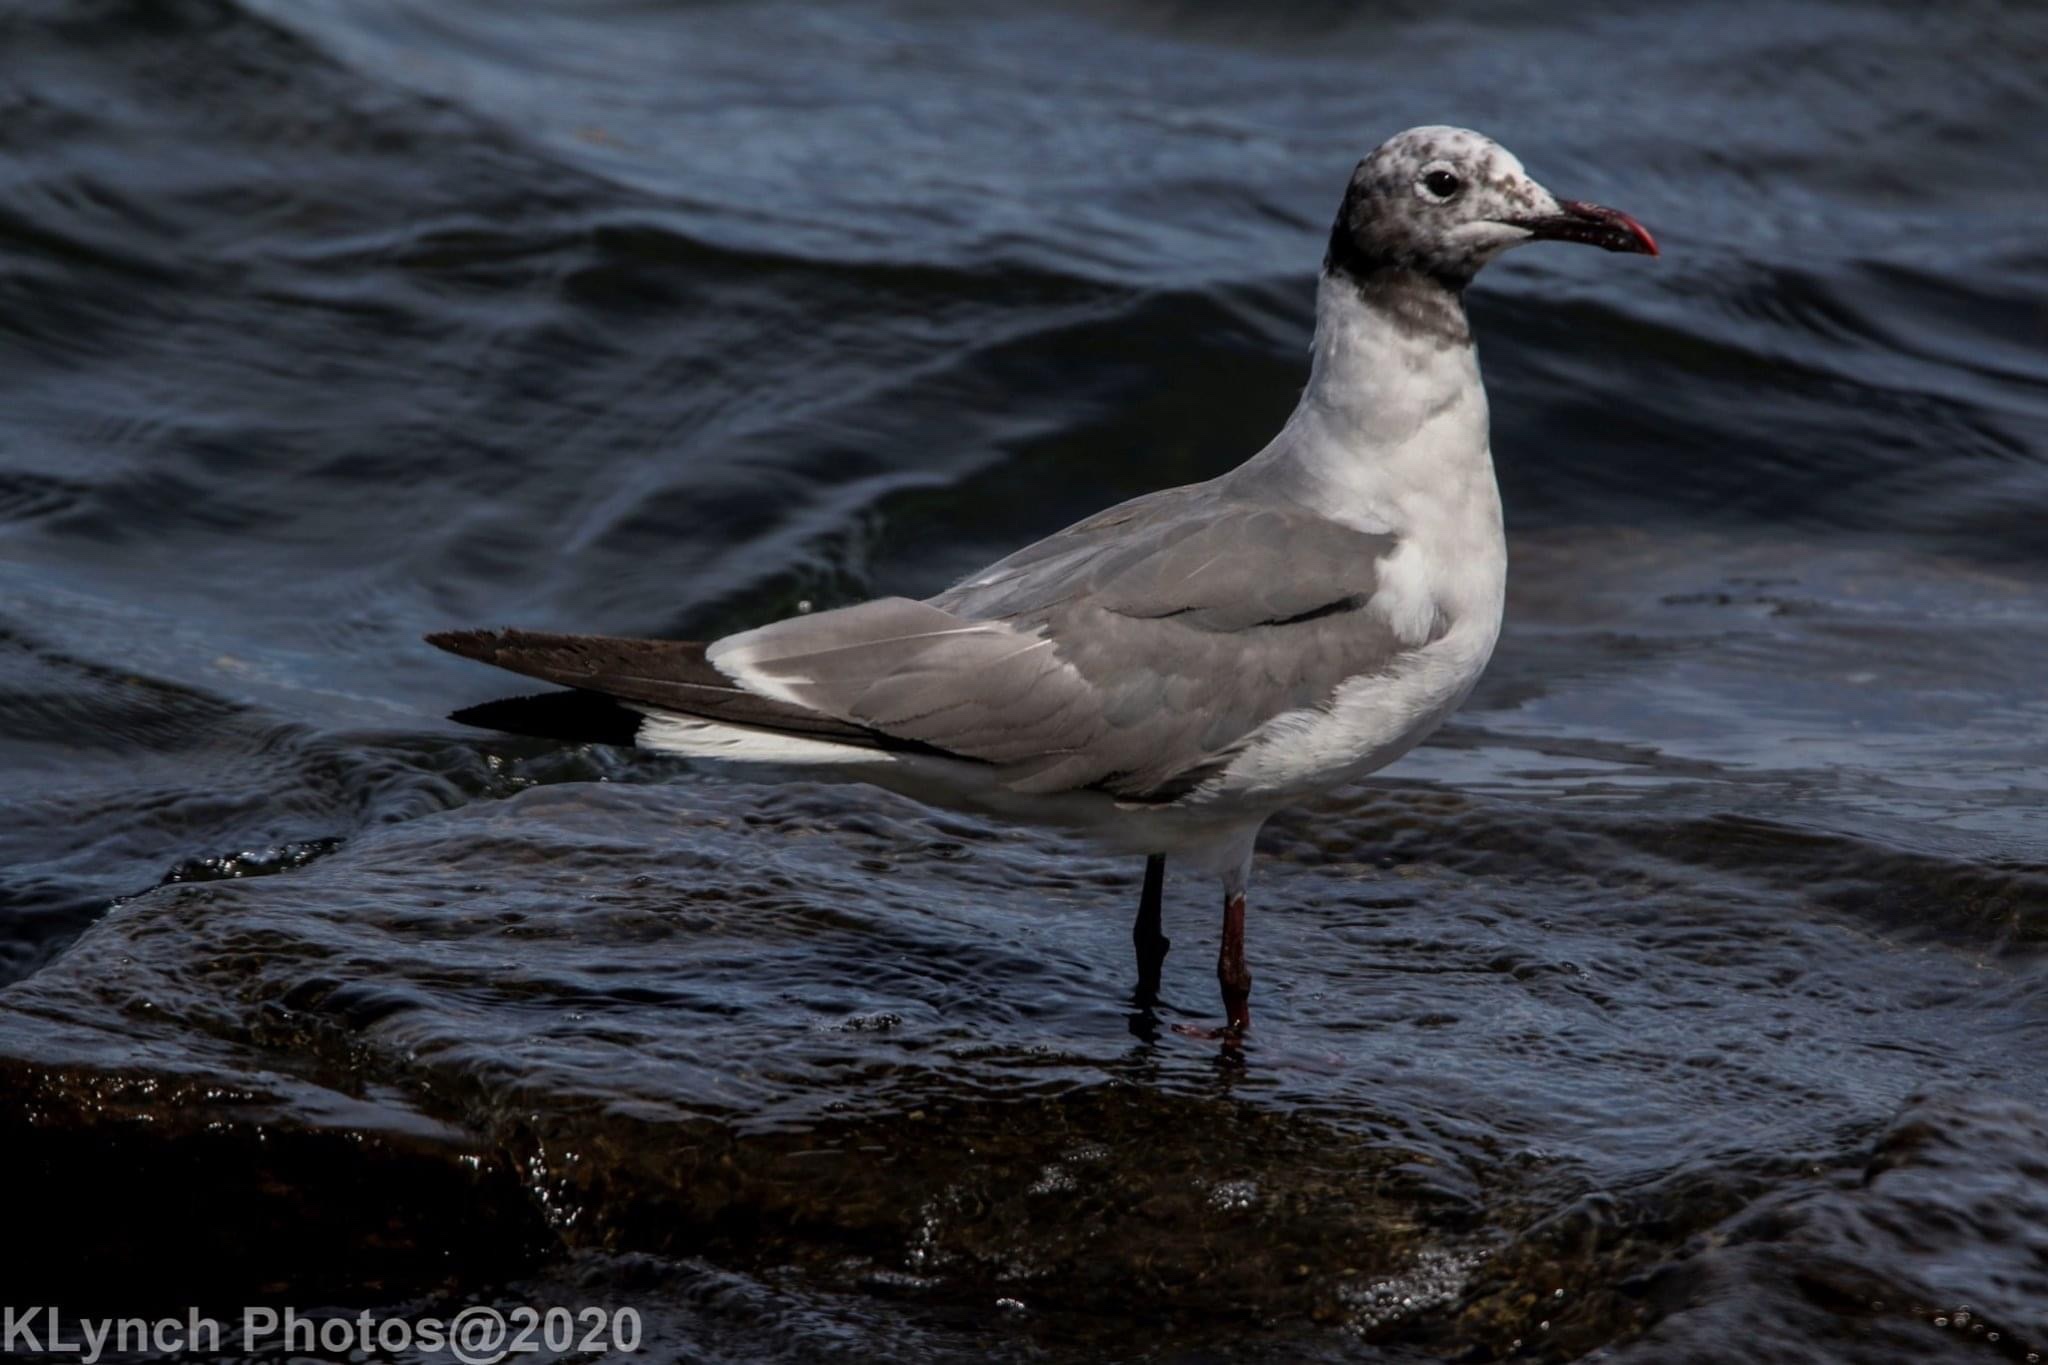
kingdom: Animalia
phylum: Chordata
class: Aves
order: Charadriiformes
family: Laridae
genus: Leucophaeus
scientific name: Leucophaeus atricilla
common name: Laughing gull
